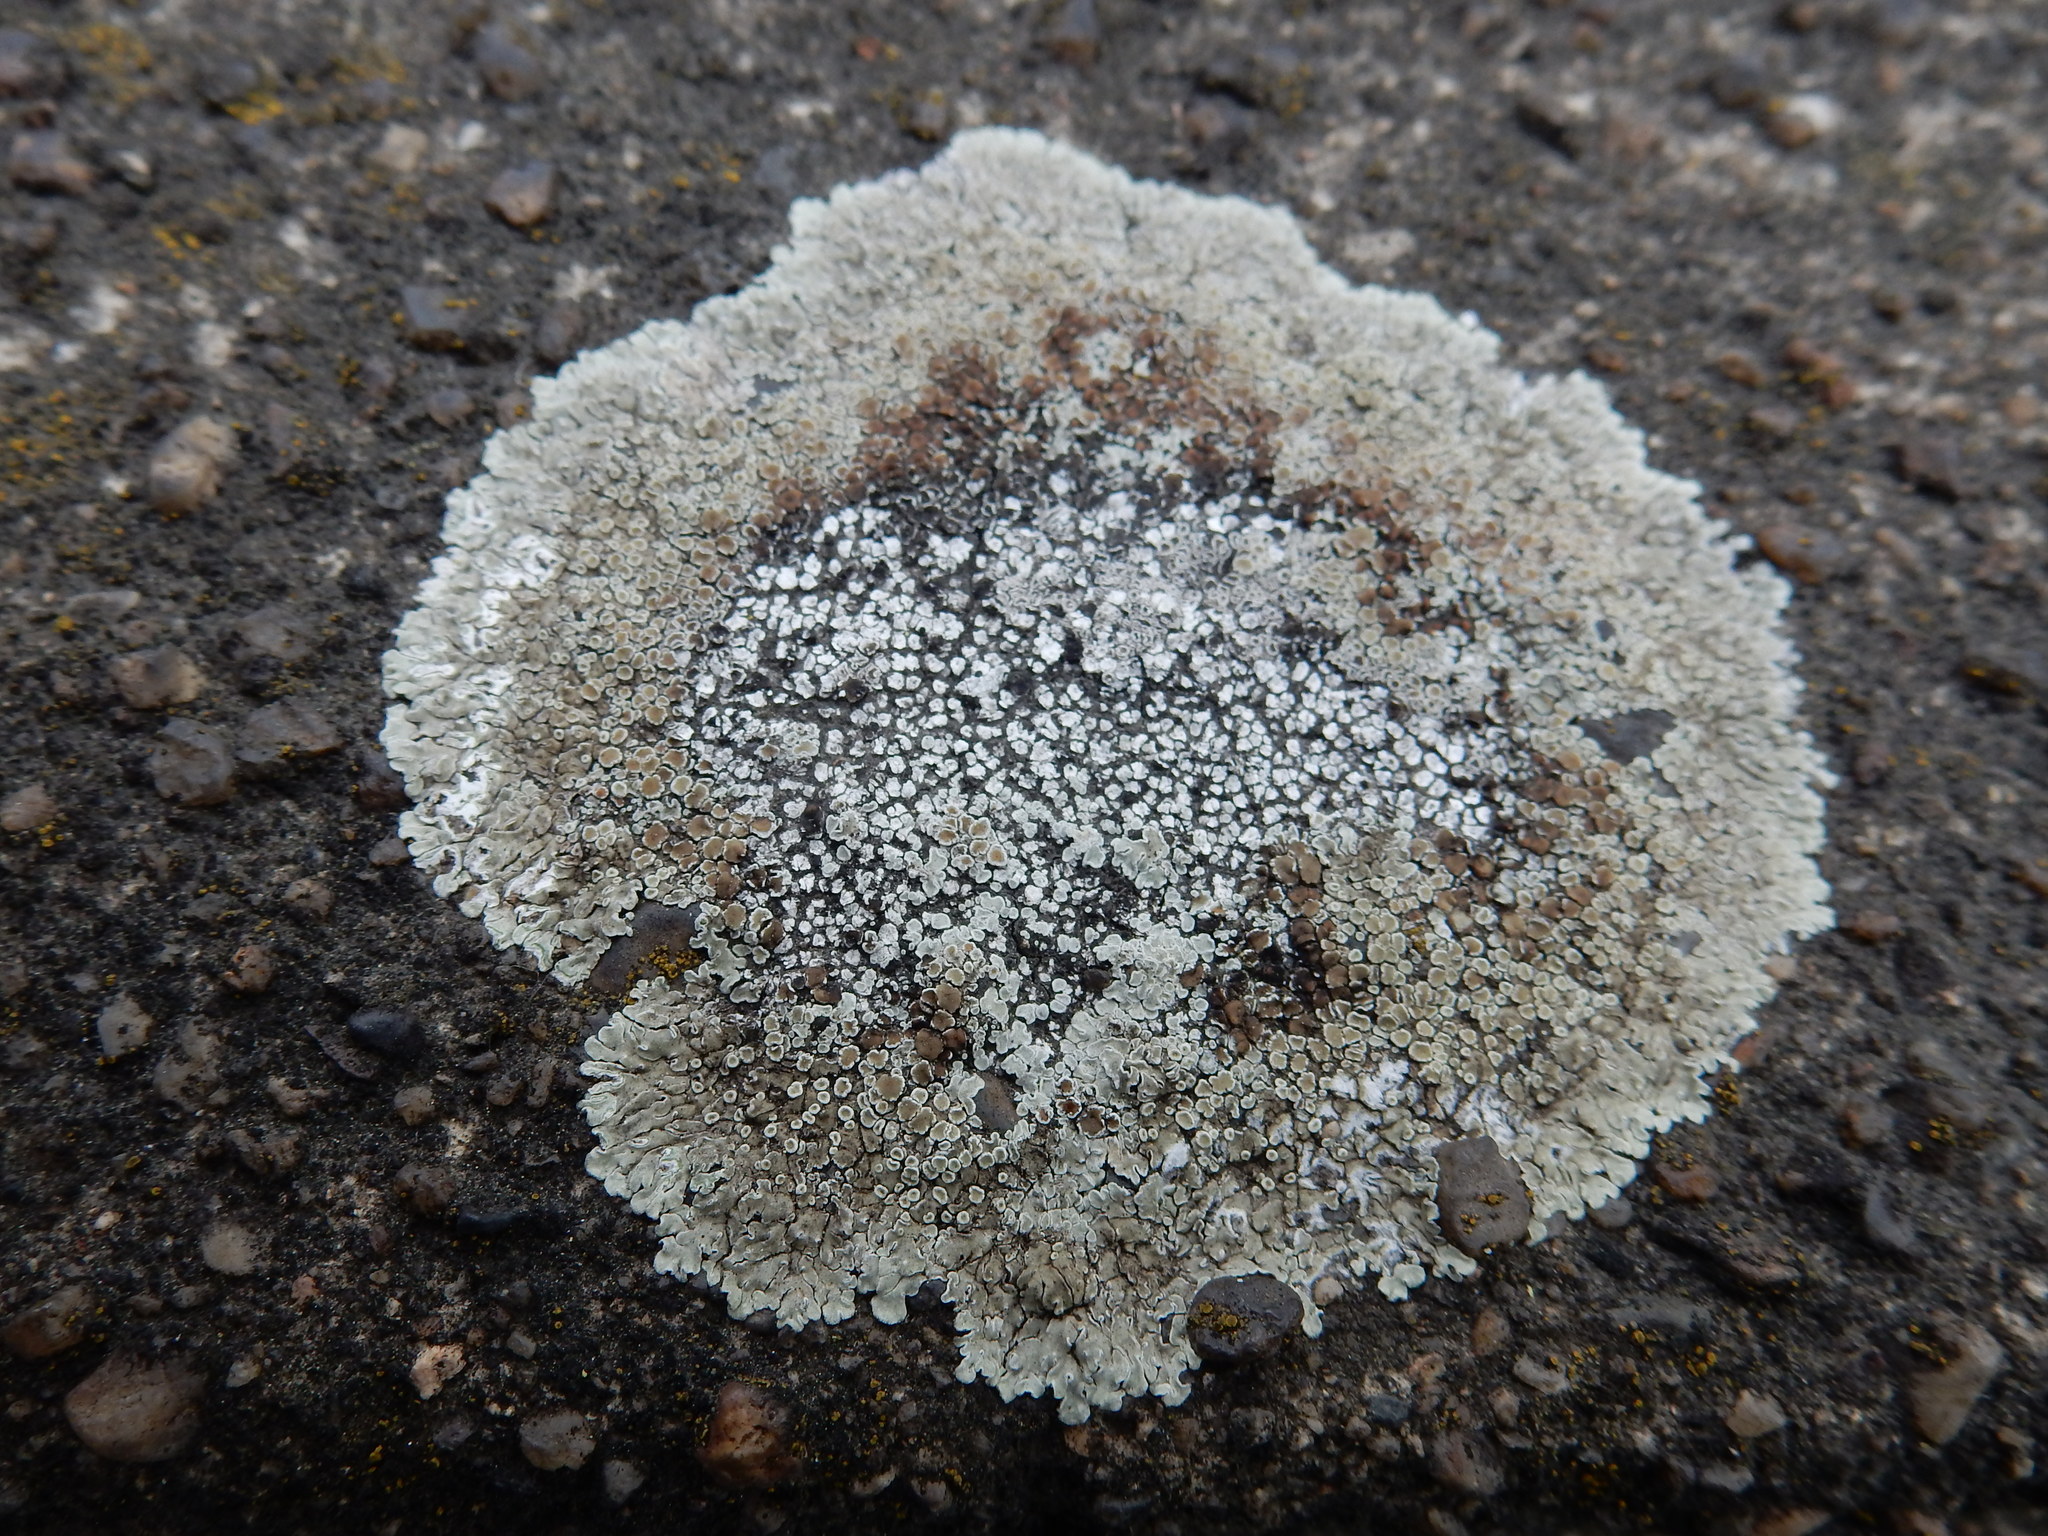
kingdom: Fungi
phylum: Ascomycota
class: Lecanoromycetes
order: Lecanorales
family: Lecanoraceae
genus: Protoparmeliopsis
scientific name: Protoparmeliopsis muralis
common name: Stonewall rim lichen
